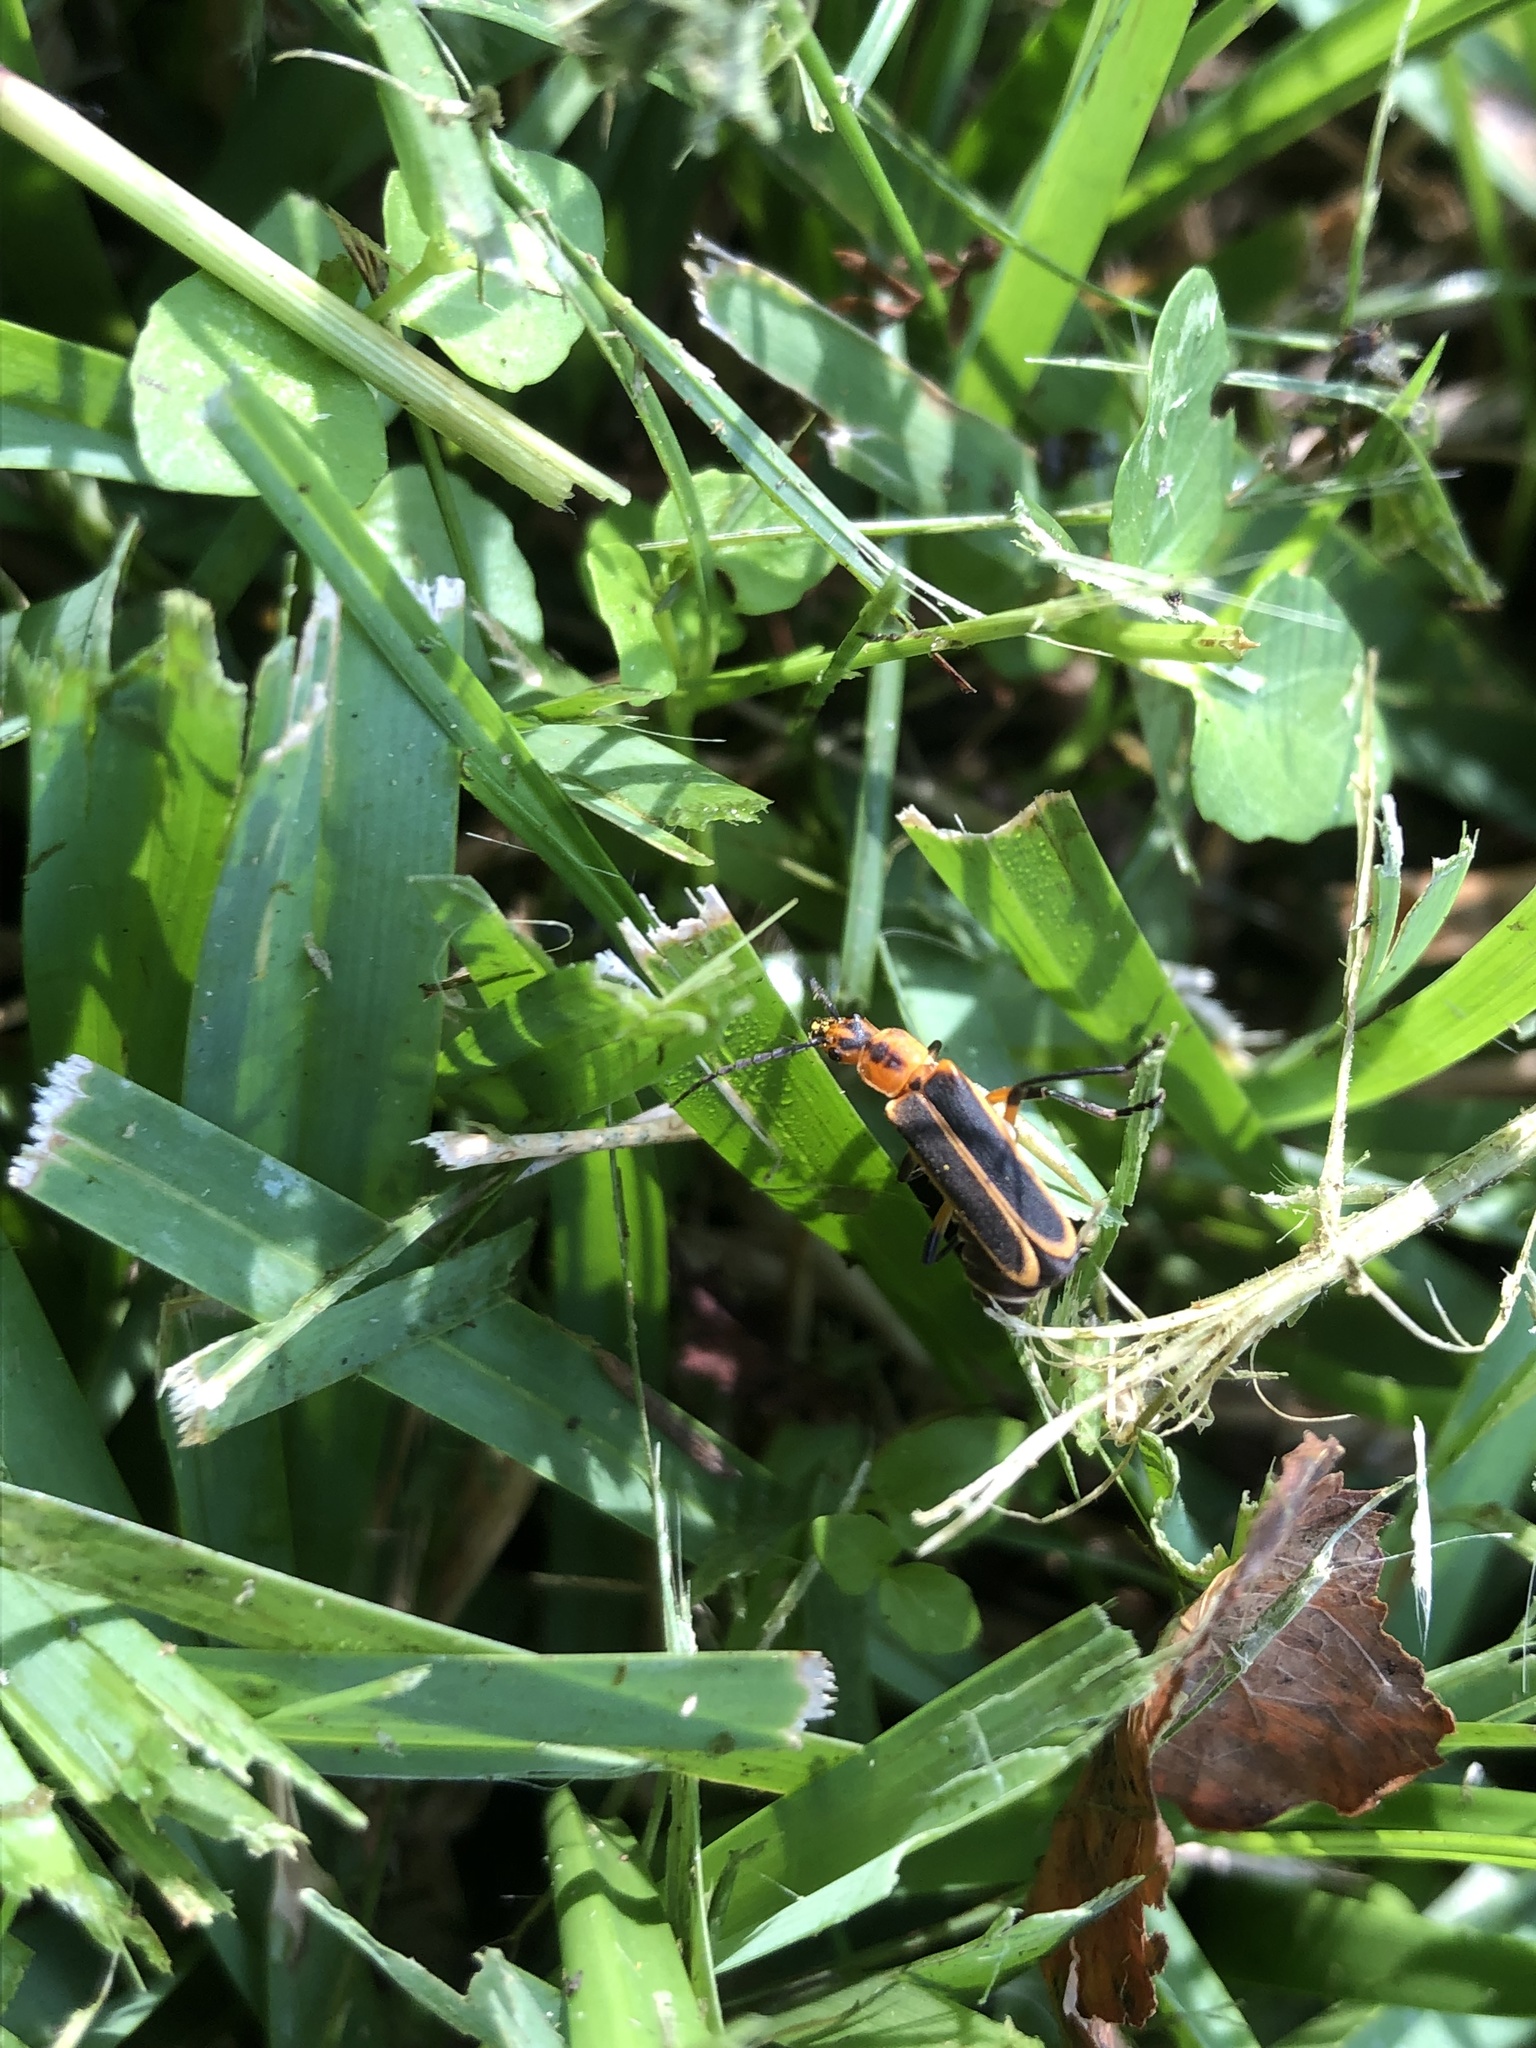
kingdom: Animalia
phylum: Arthropoda
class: Insecta
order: Coleoptera
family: Cantharidae
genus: Chauliognathus
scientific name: Chauliognathus marginatus
